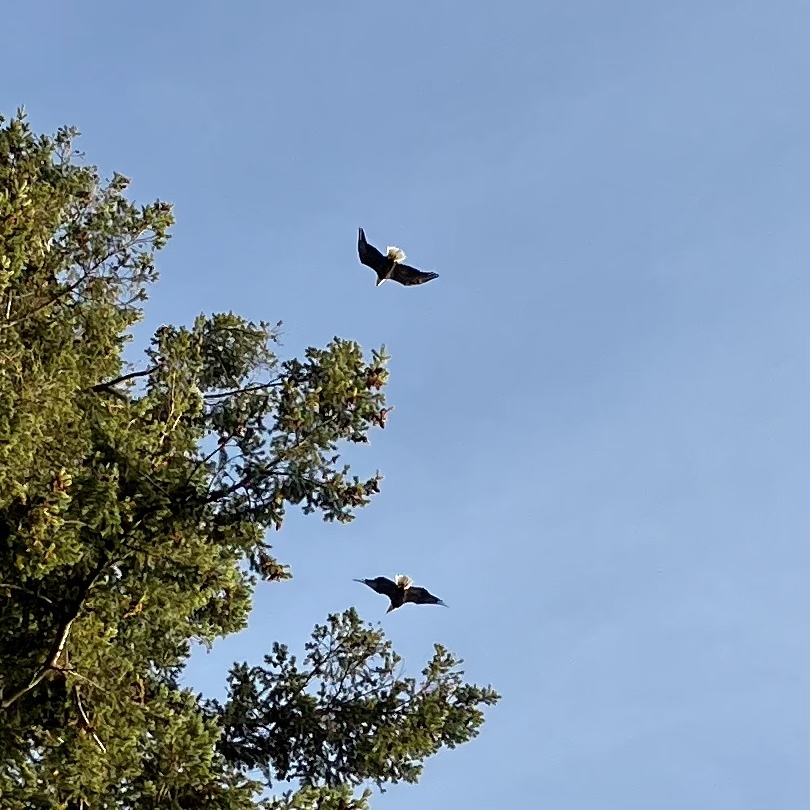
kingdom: Animalia
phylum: Chordata
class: Aves
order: Accipitriformes
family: Accipitridae
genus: Haliaeetus
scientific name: Haliaeetus leucocephalus
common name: Bald eagle
